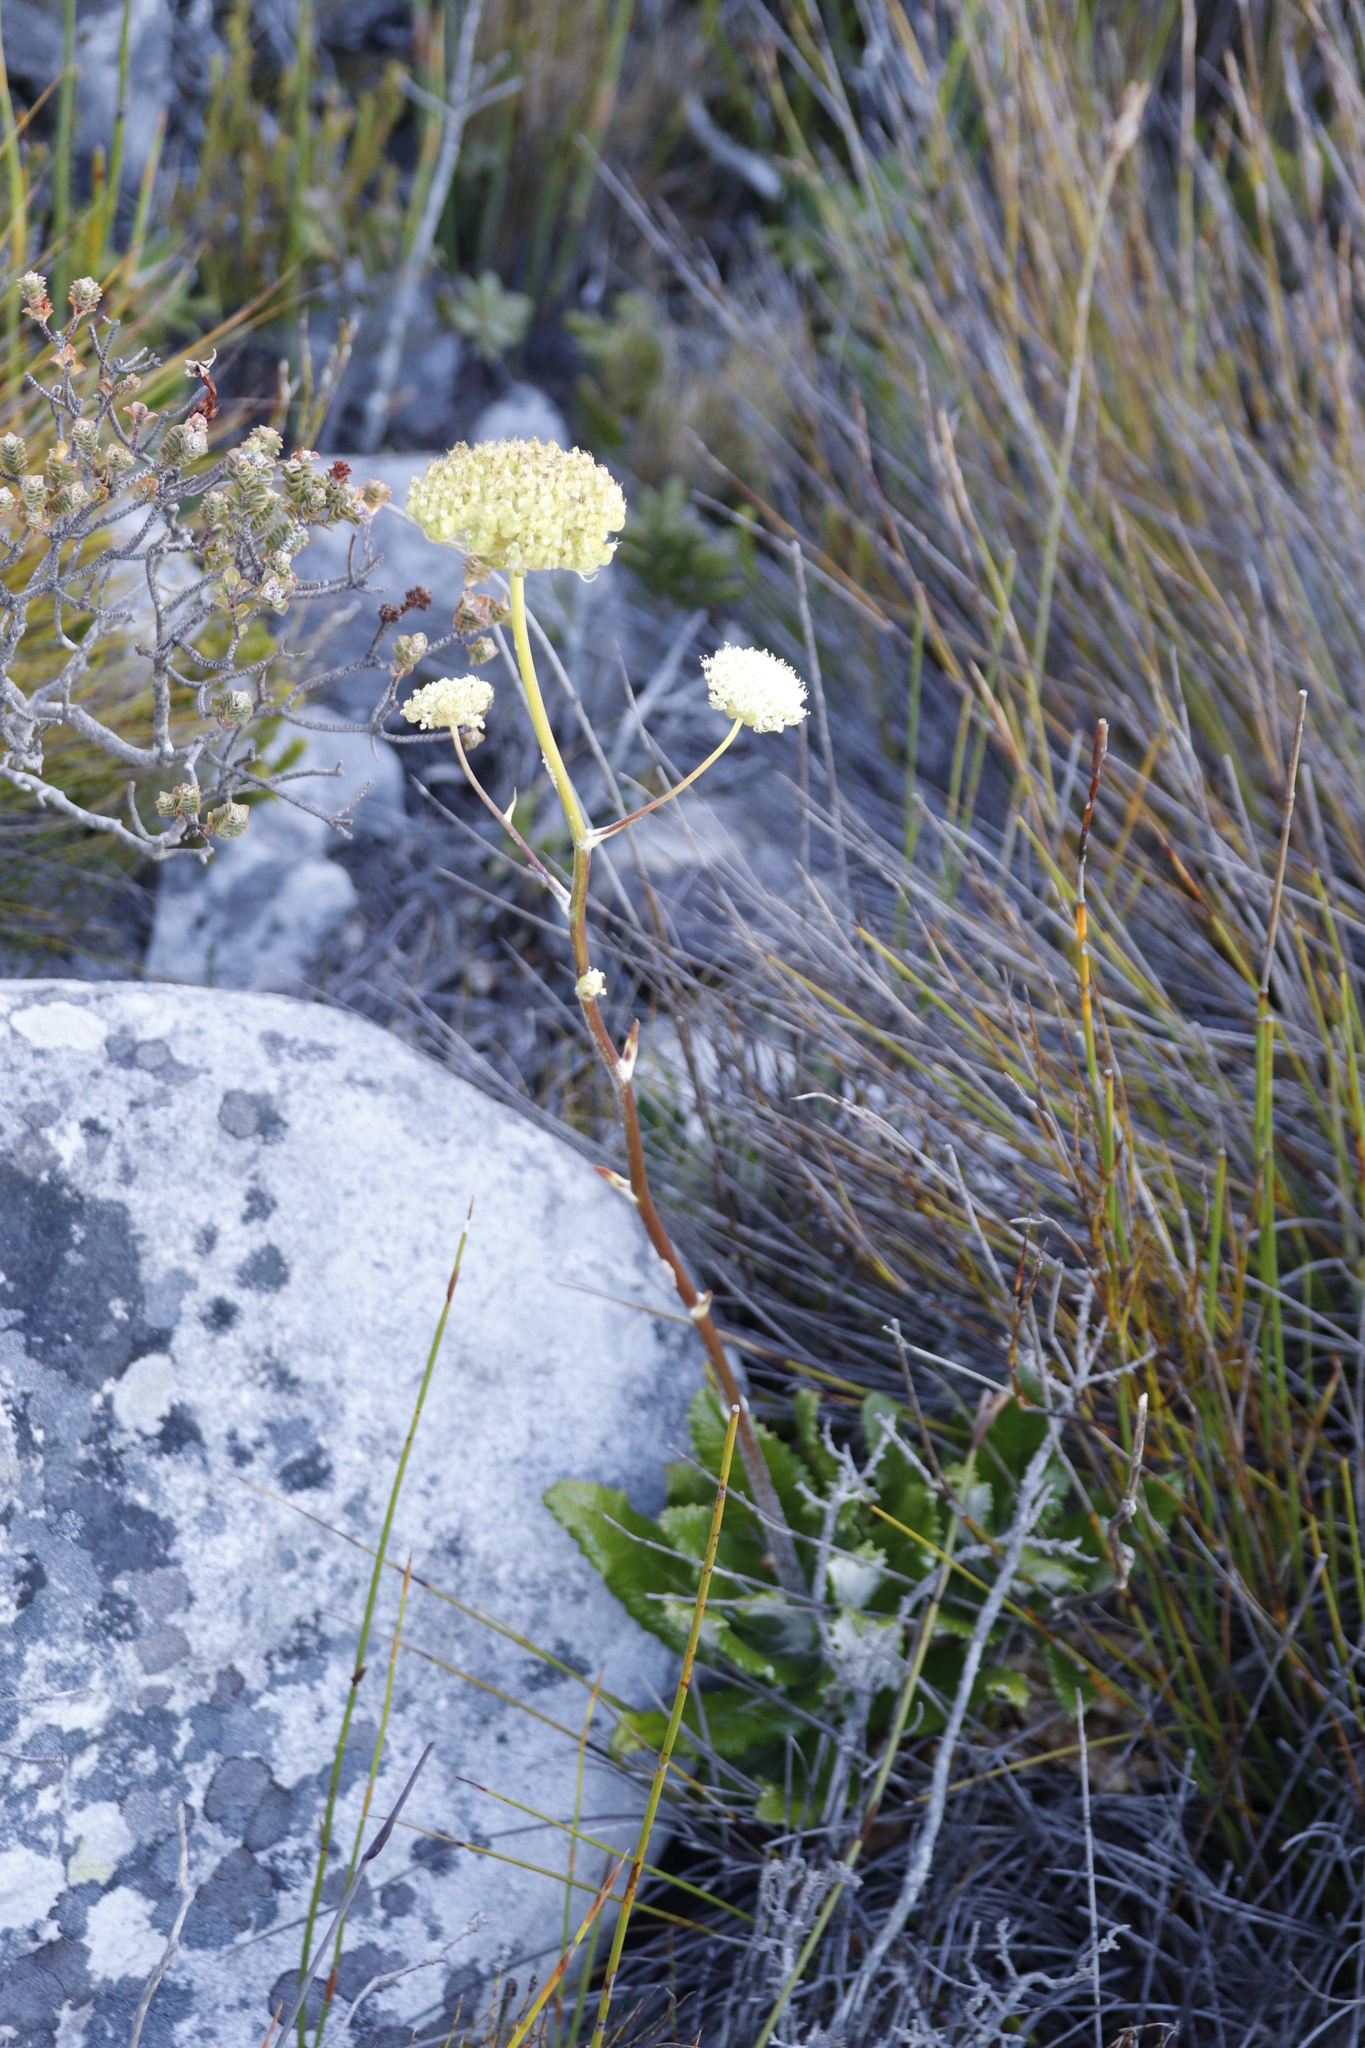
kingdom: Plantae
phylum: Tracheophyta
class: Magnoliopsida
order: Apiales
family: Apiaceae
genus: Hermas
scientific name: Hermas villosa
